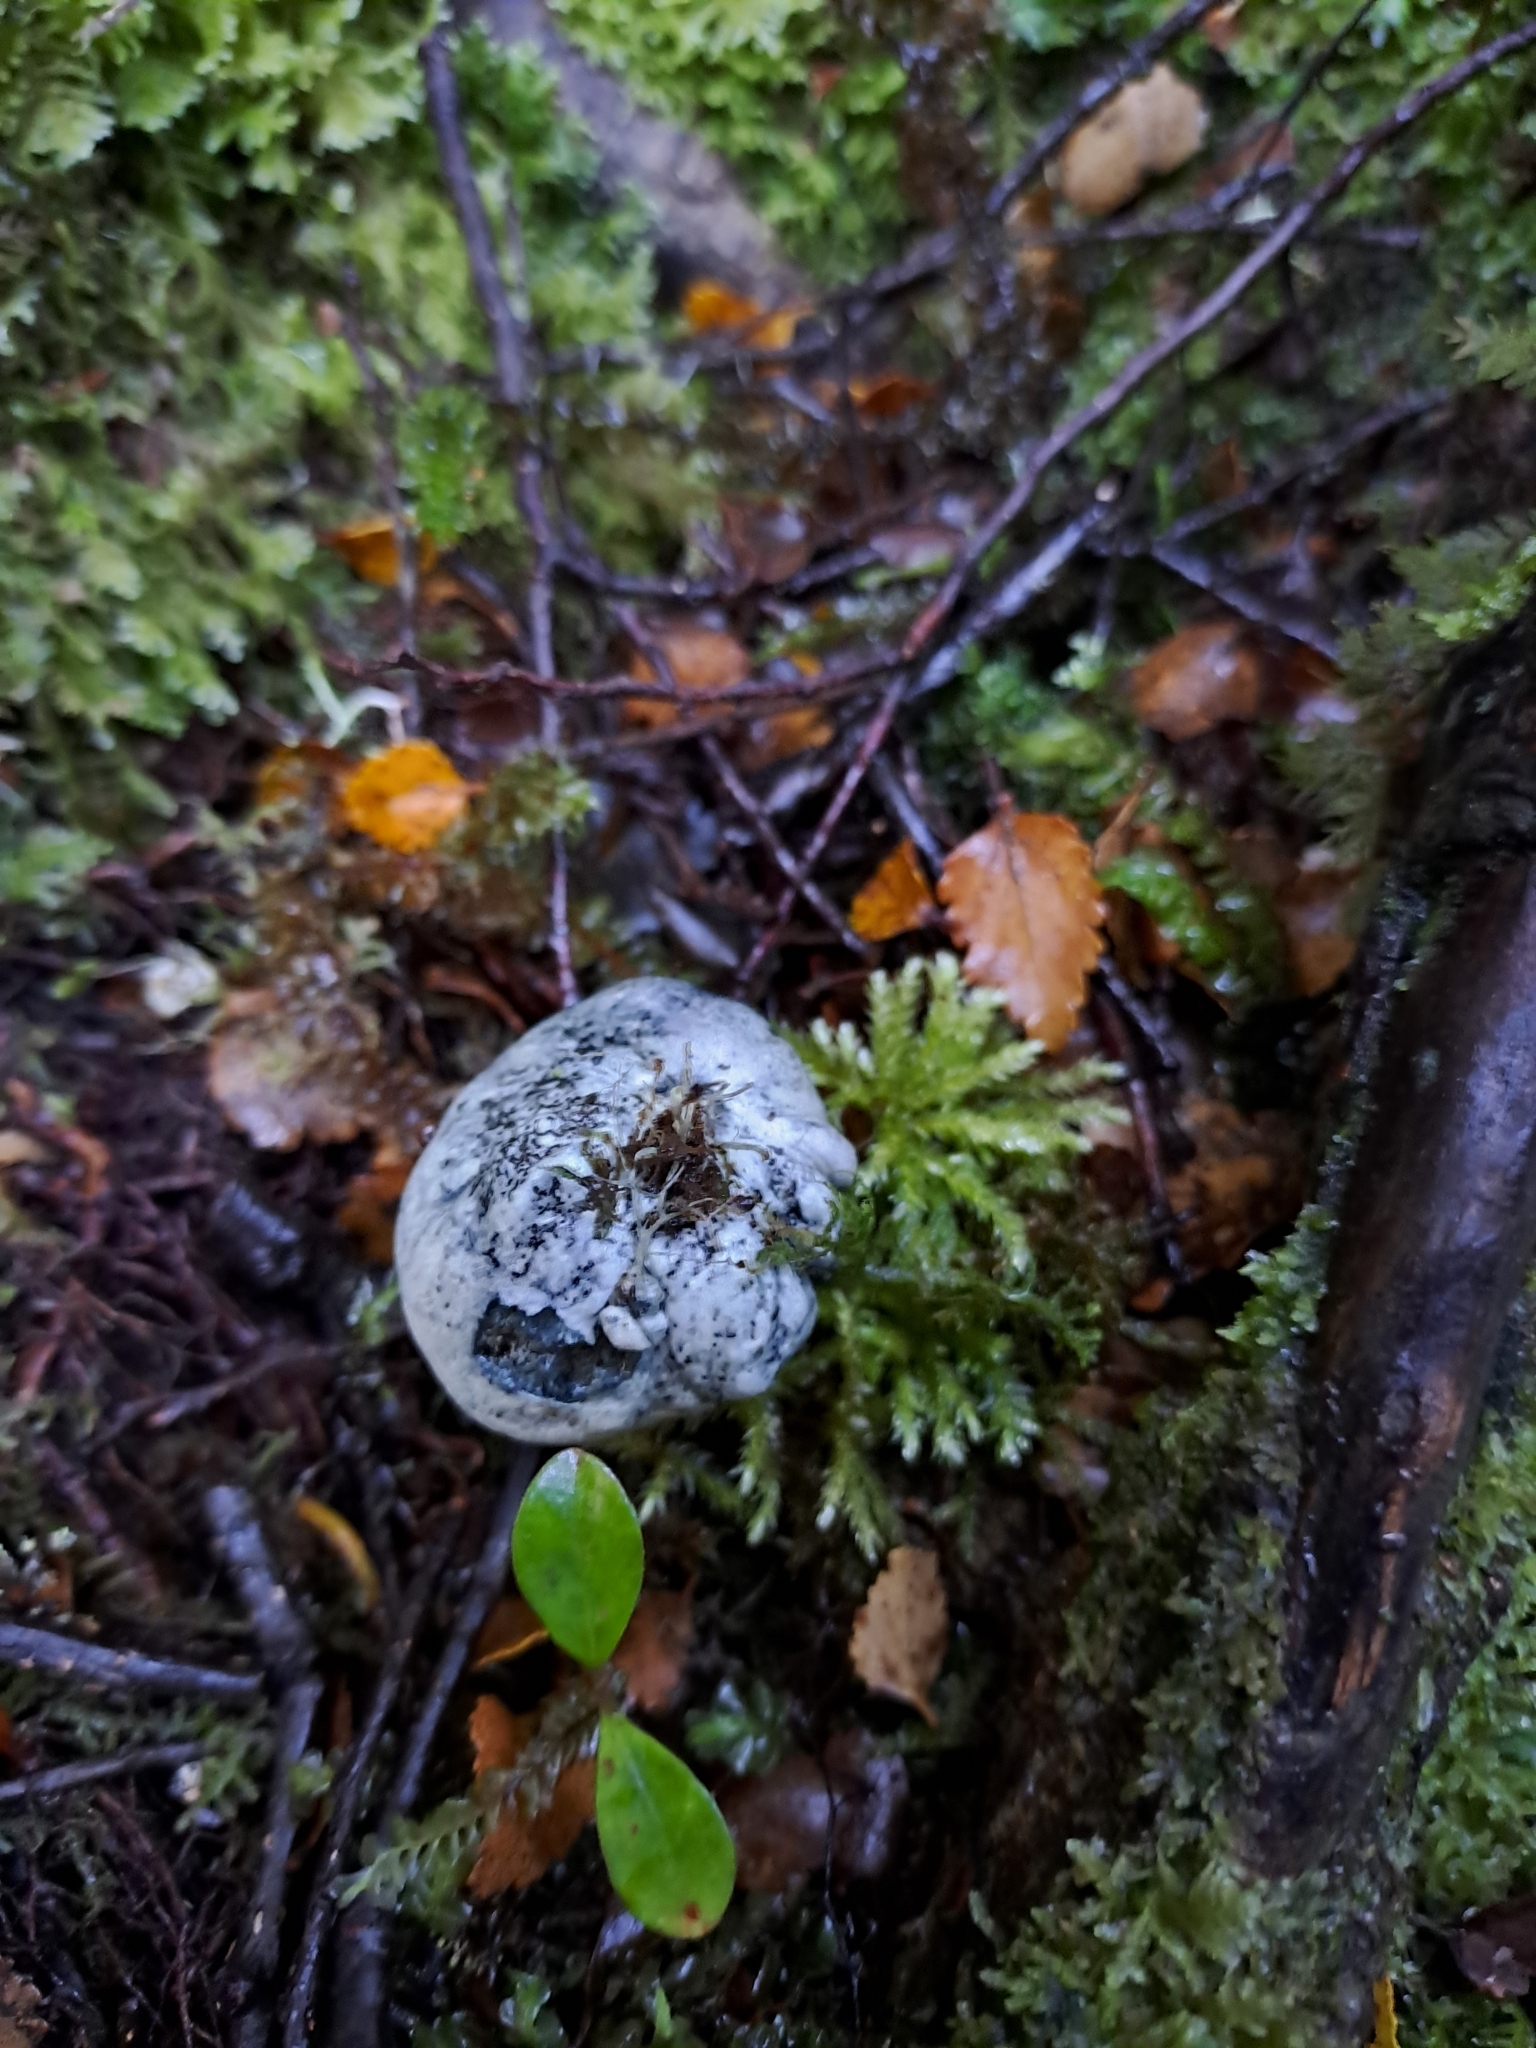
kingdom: Fungi
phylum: Basidiomycota
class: Agaricomycetes
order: Boletales
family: Boletaceae
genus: Leccinum
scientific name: Leccinum pachyderme
